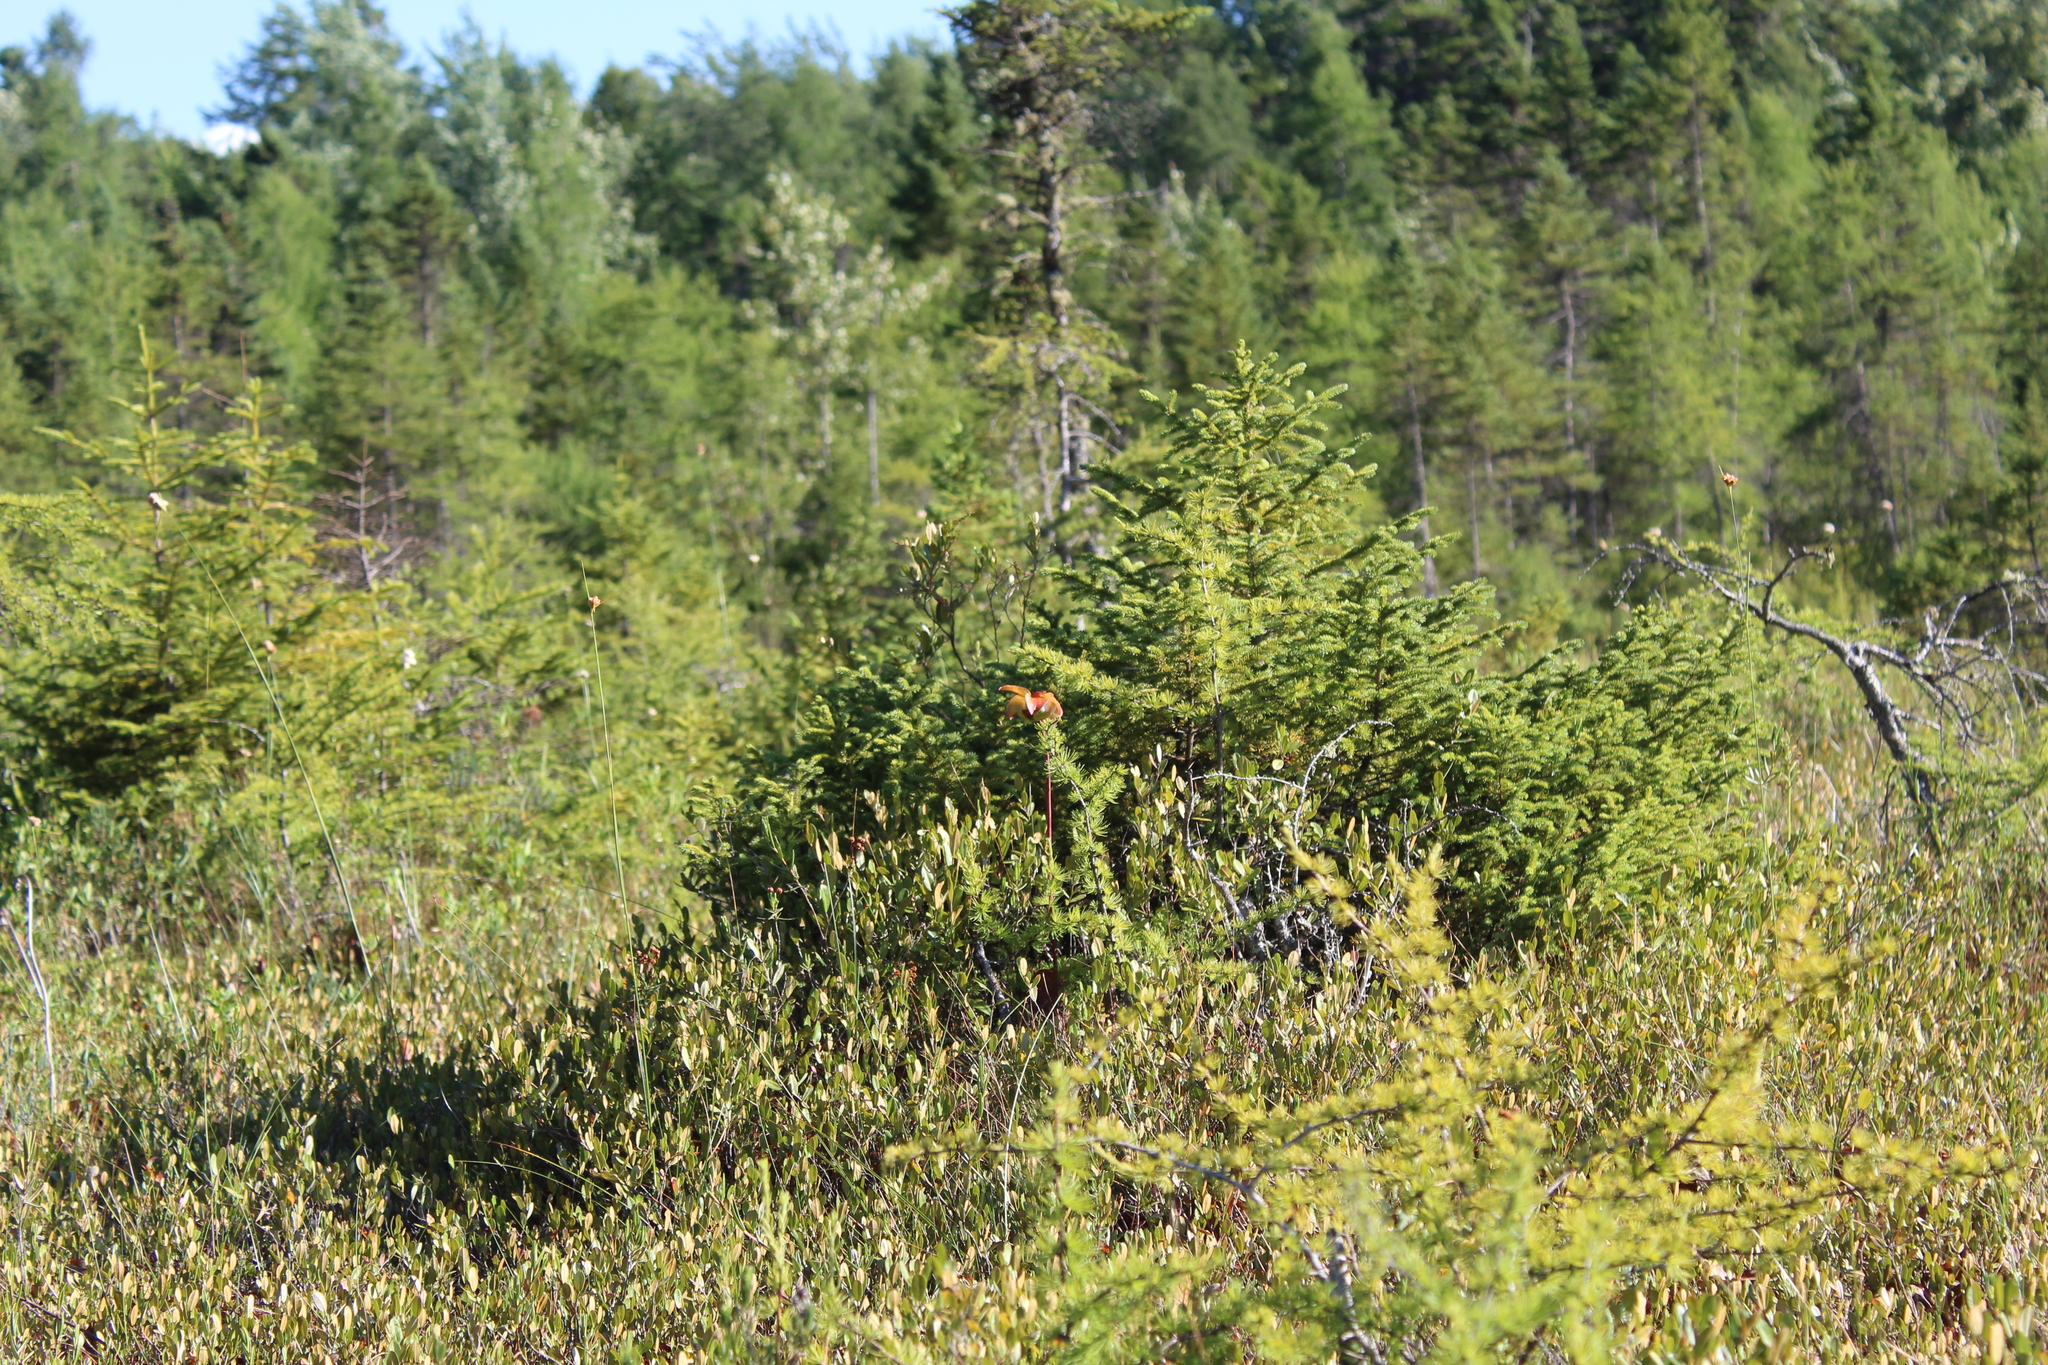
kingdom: Plantae
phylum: Tracheophyta
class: Magnoliopsida
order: Ericales
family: Sarraceniaceae
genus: Sarracenia
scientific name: Sarracenia purpurea
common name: Pitcherplant
